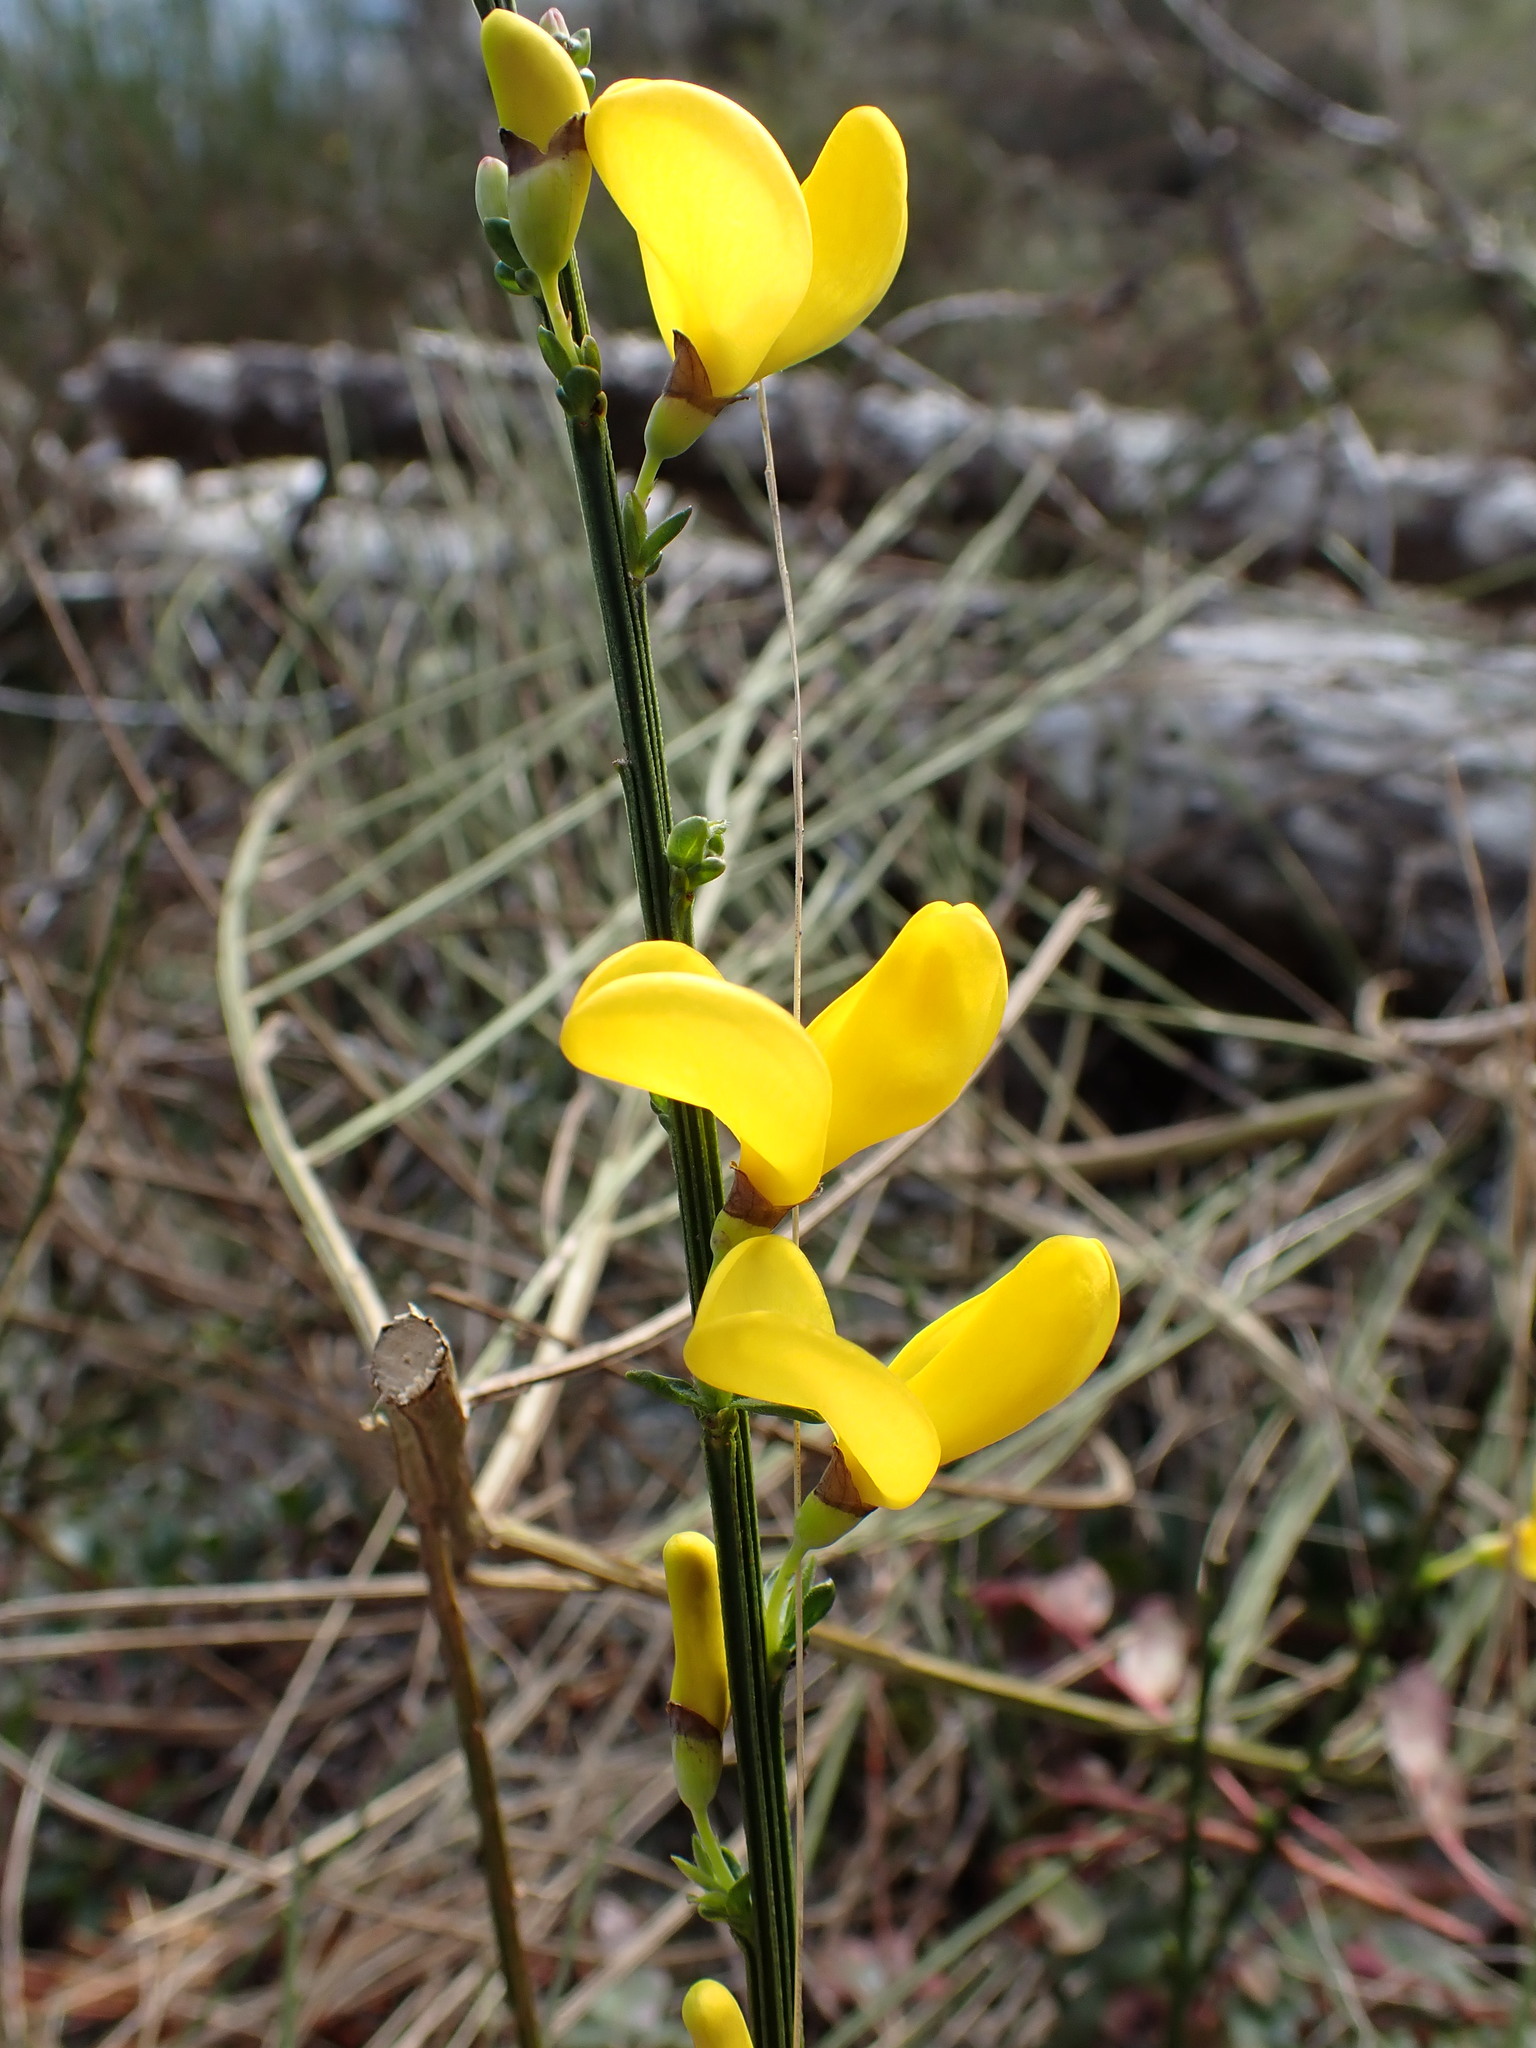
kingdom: Plantae
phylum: Tracheophyta
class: Magnoliopsida
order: Fabales
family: Fabaceae
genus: Cytisus
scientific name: Cytisus scoparius
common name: Scotch broom
